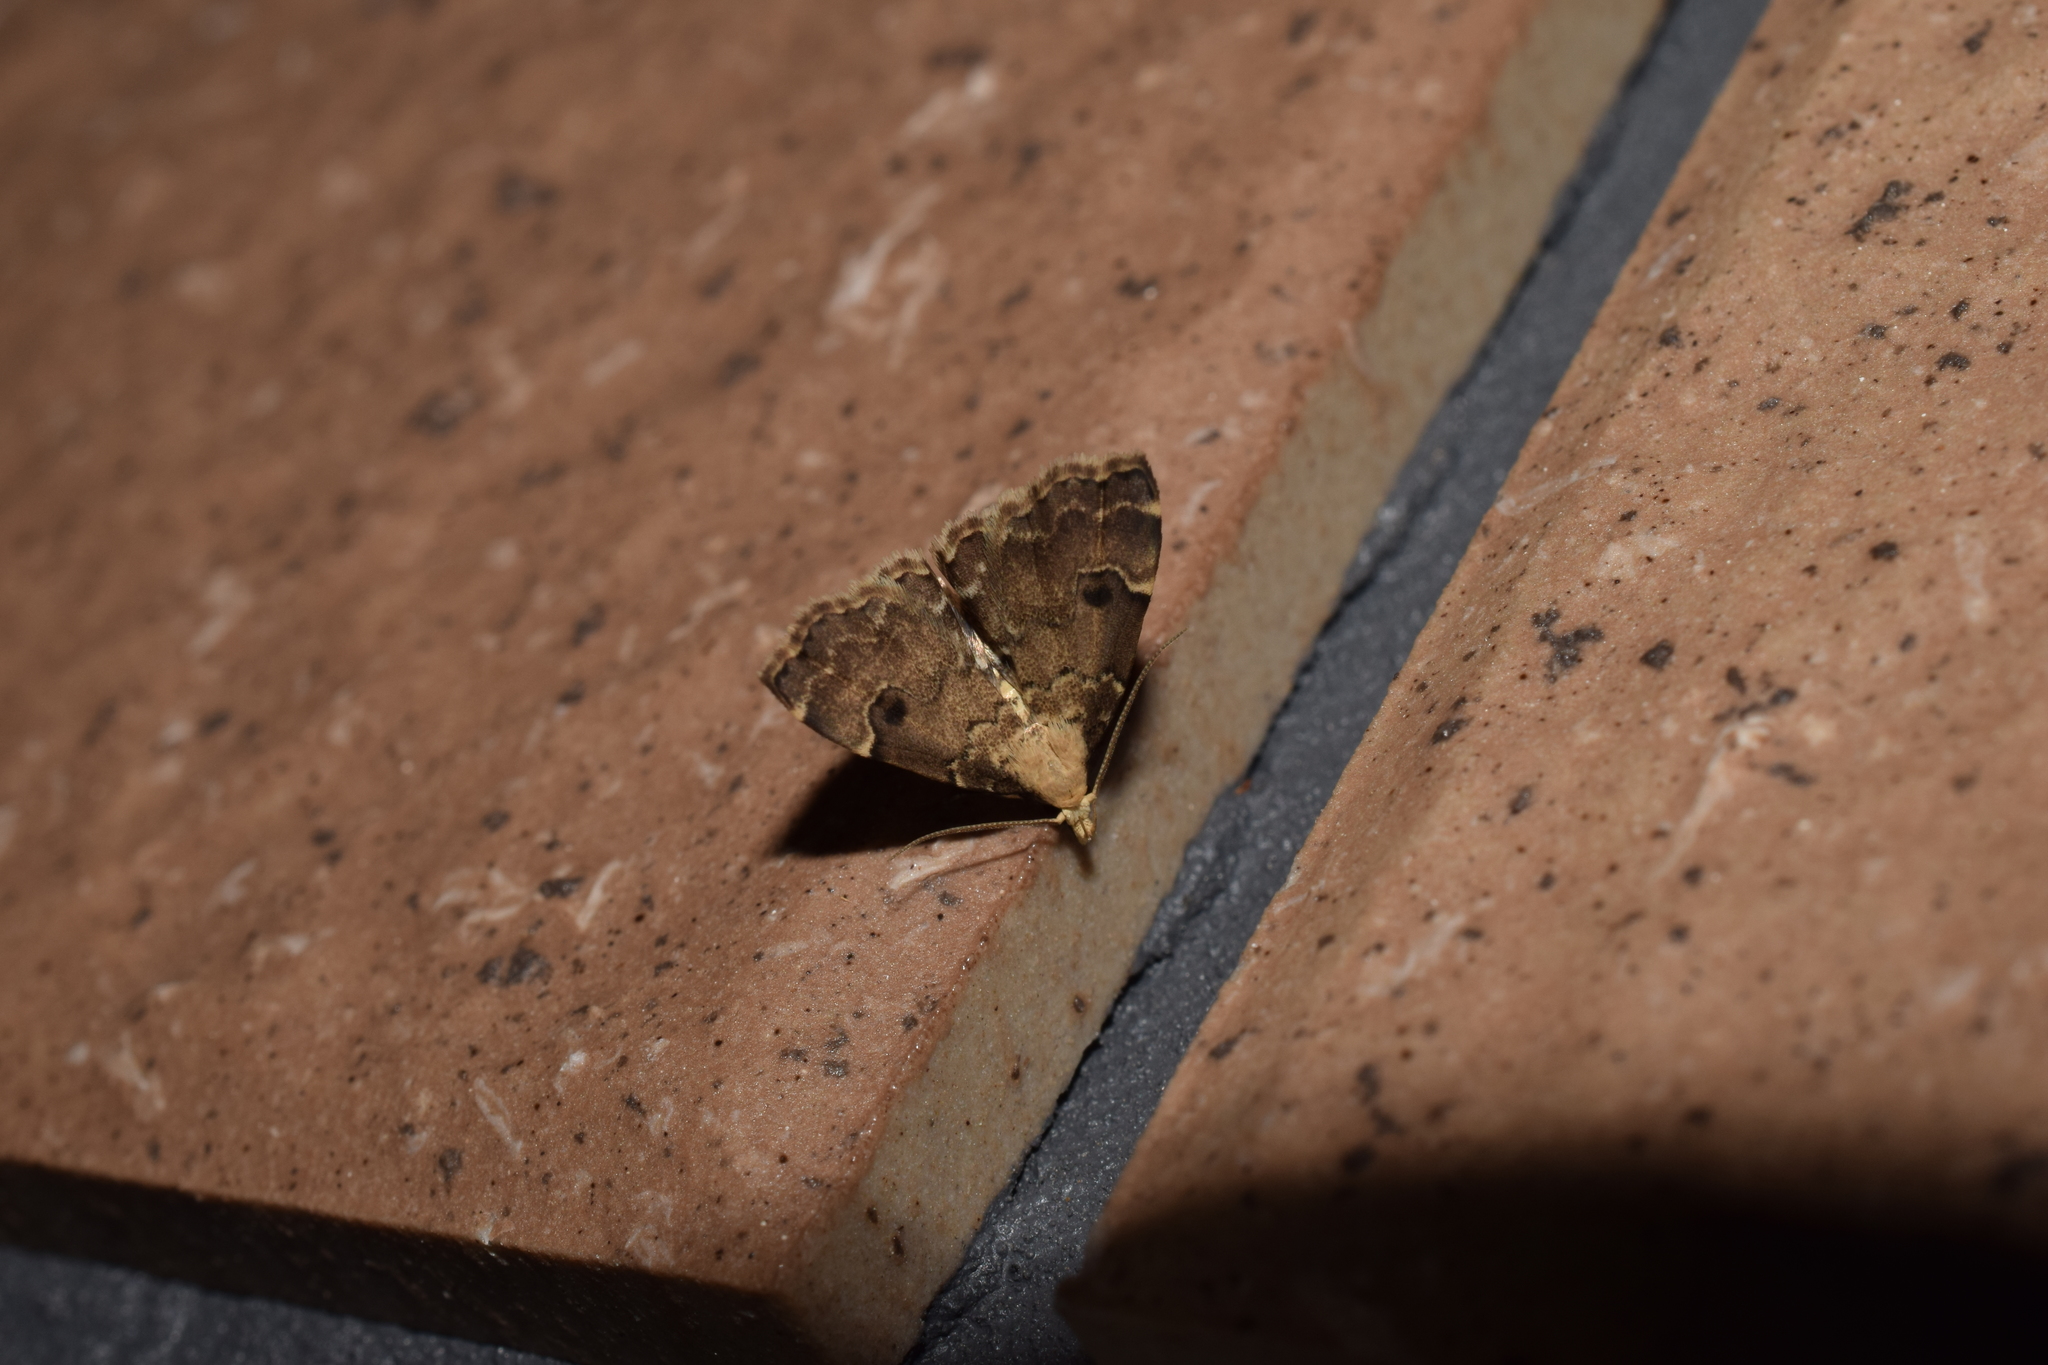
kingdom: Animalia
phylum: Arthropoda
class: Insecta
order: Lepidoptera
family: Erebidae
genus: Micreremites
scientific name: Micreremites pyraloides
